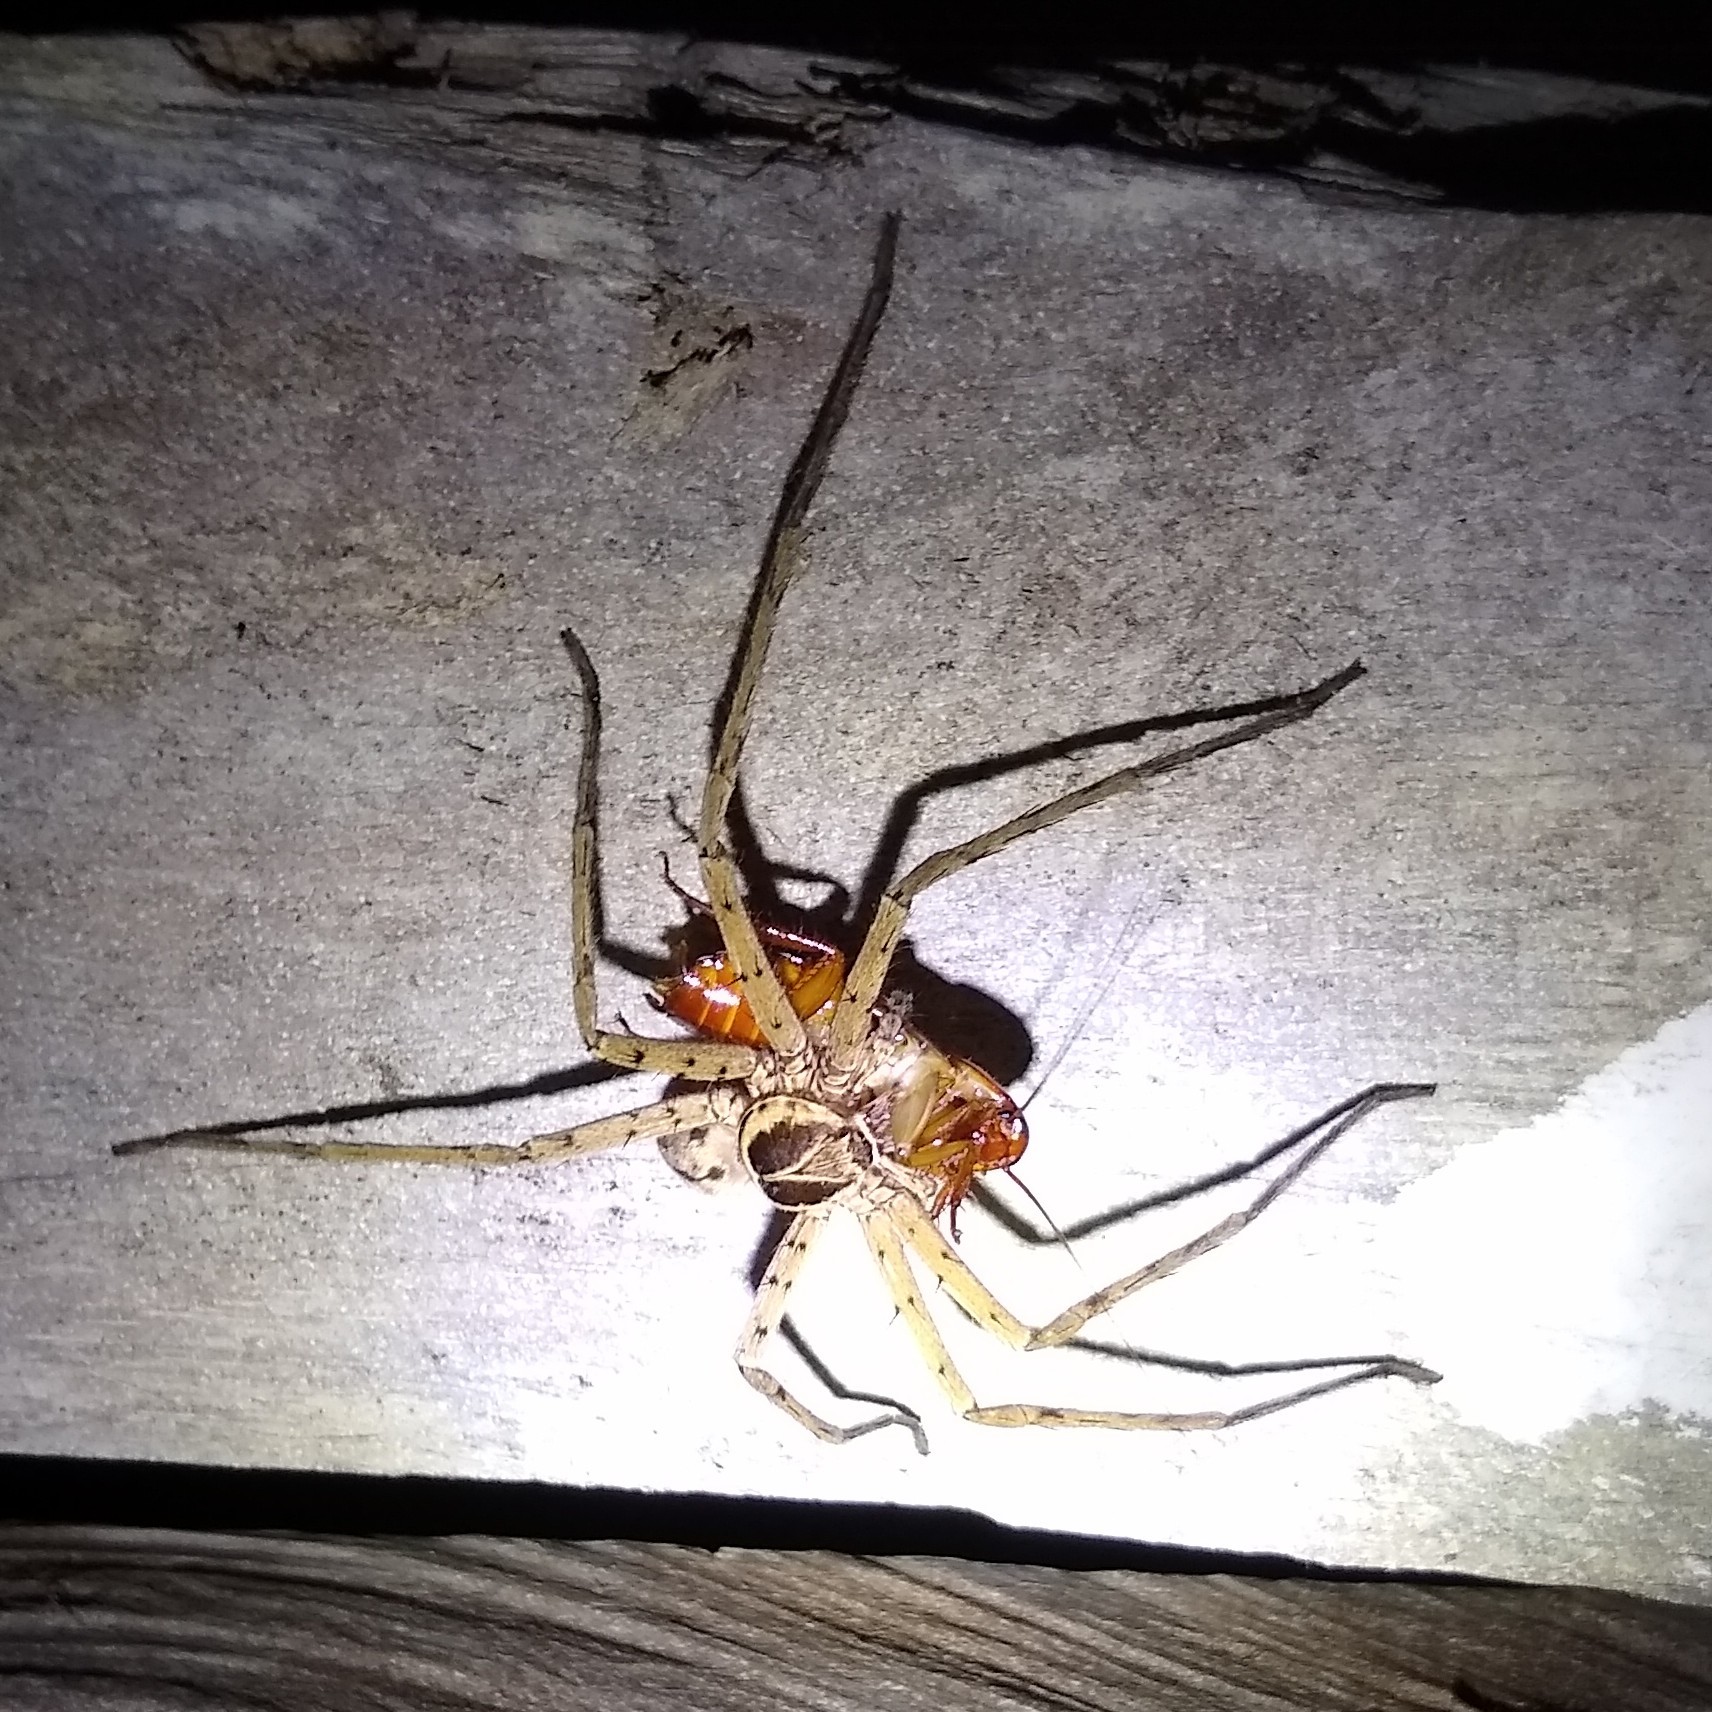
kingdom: Animalia
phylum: Arthropoda
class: Arachnida
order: Araneae
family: Sparassidae
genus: Heteropoda
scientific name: Heteropoda venatoria
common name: Huntsman spider
